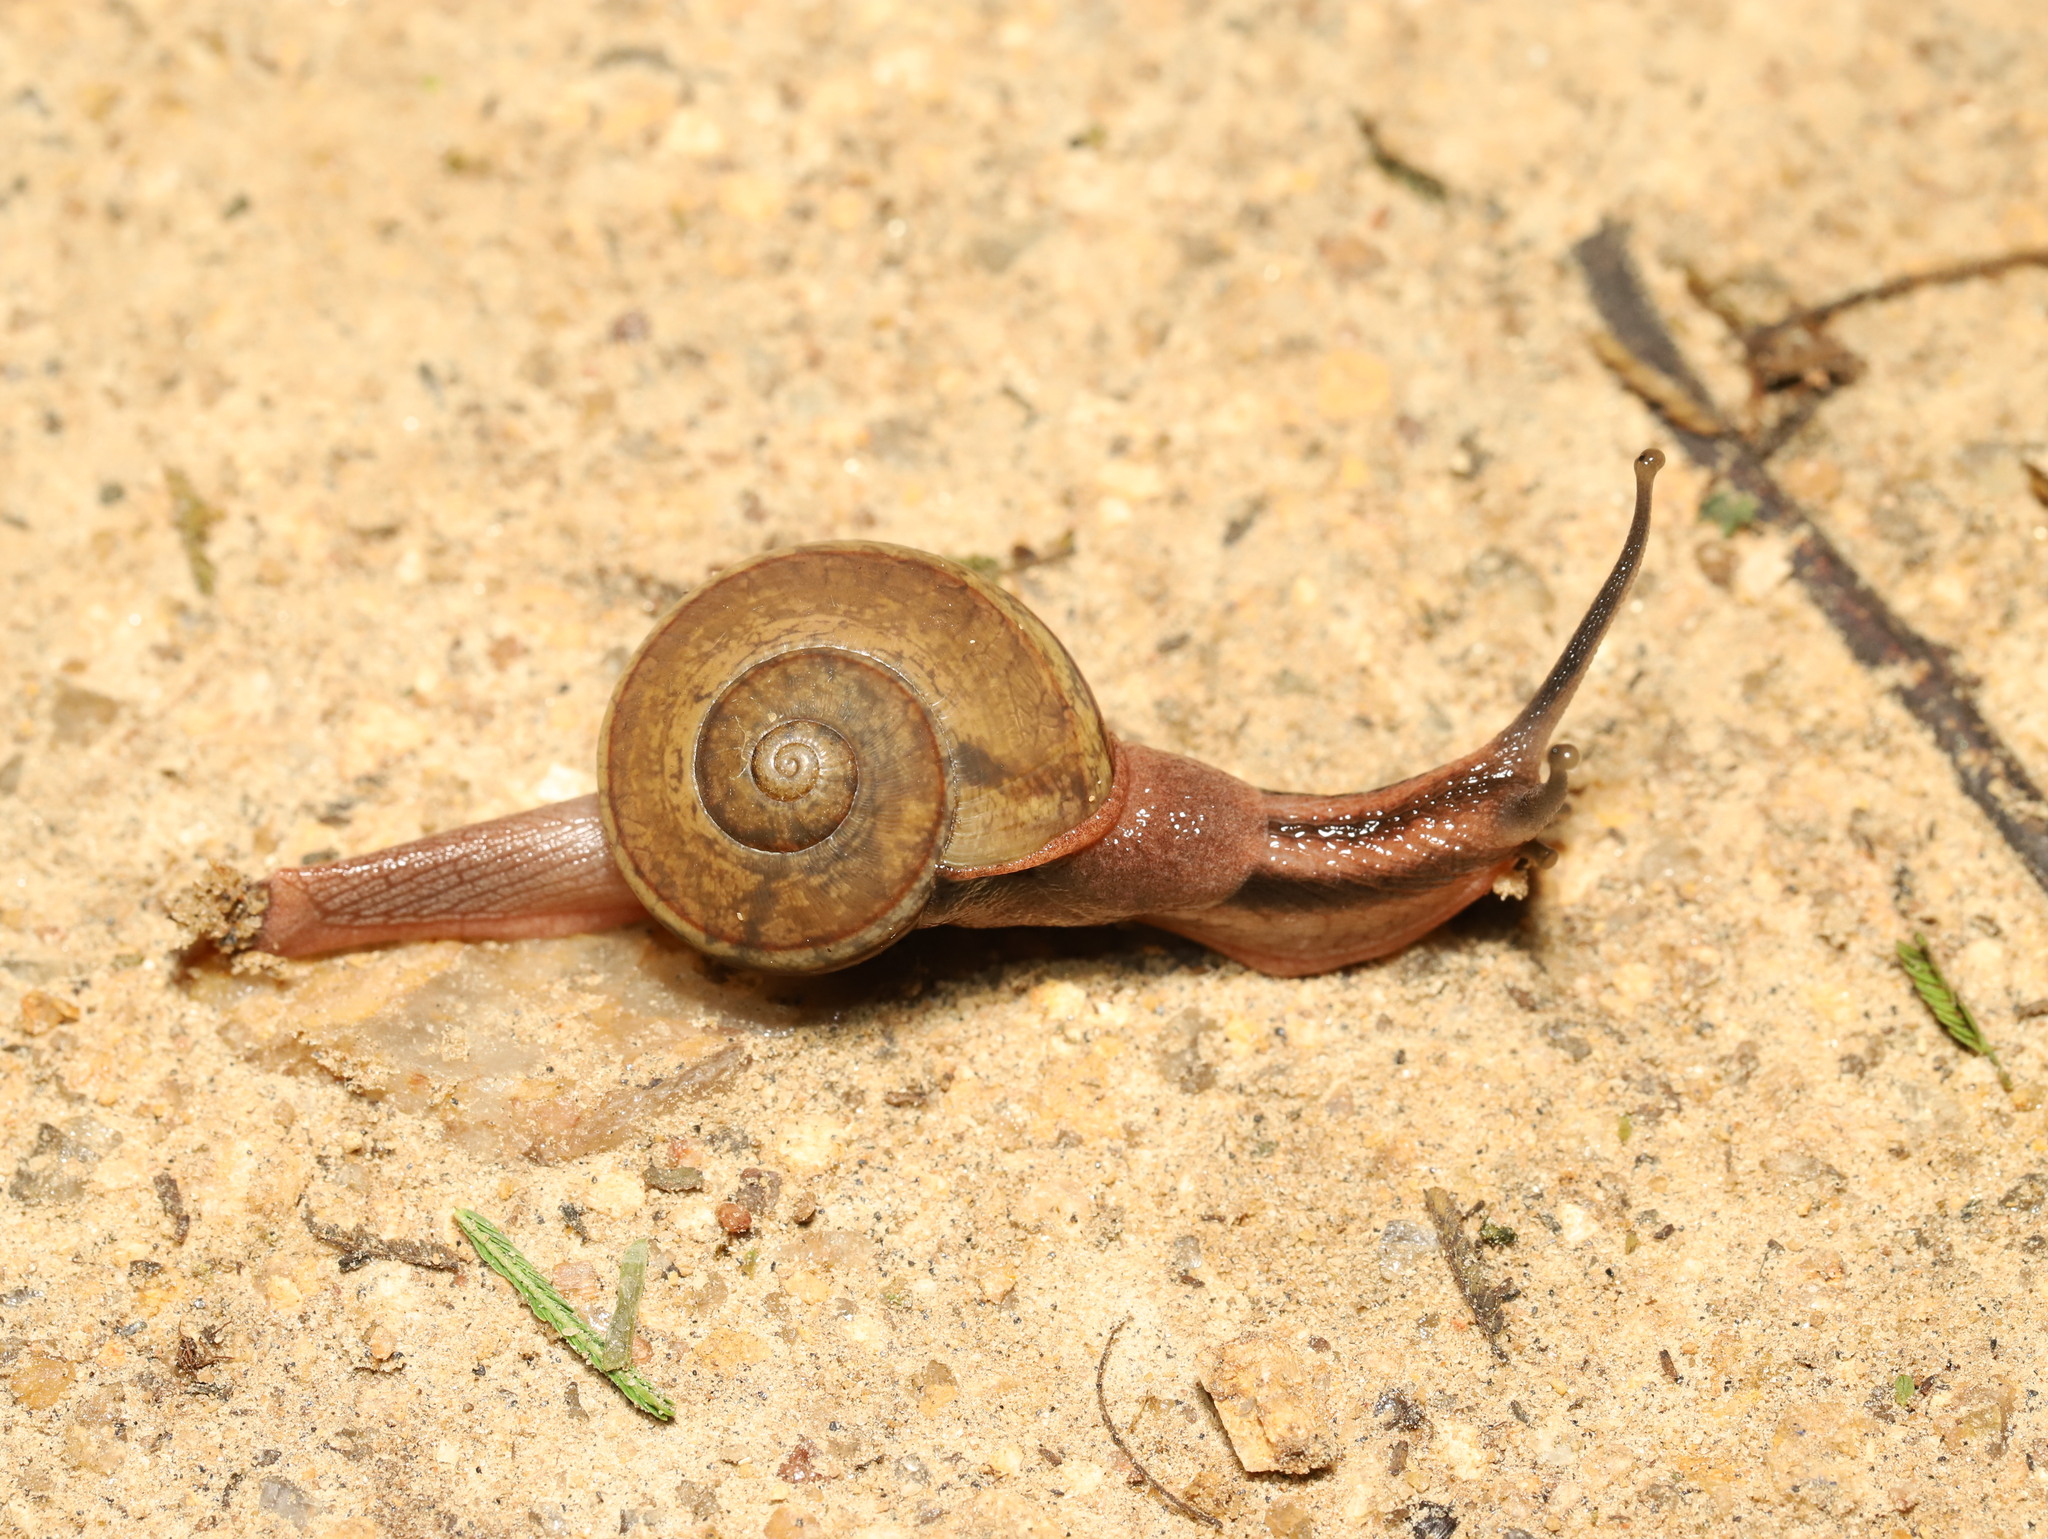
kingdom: Animalia
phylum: Mollusca
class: Gastropoda
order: Stylommatophora
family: Ariophantidae
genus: Ariophanta
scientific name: Ariophanta exilis
